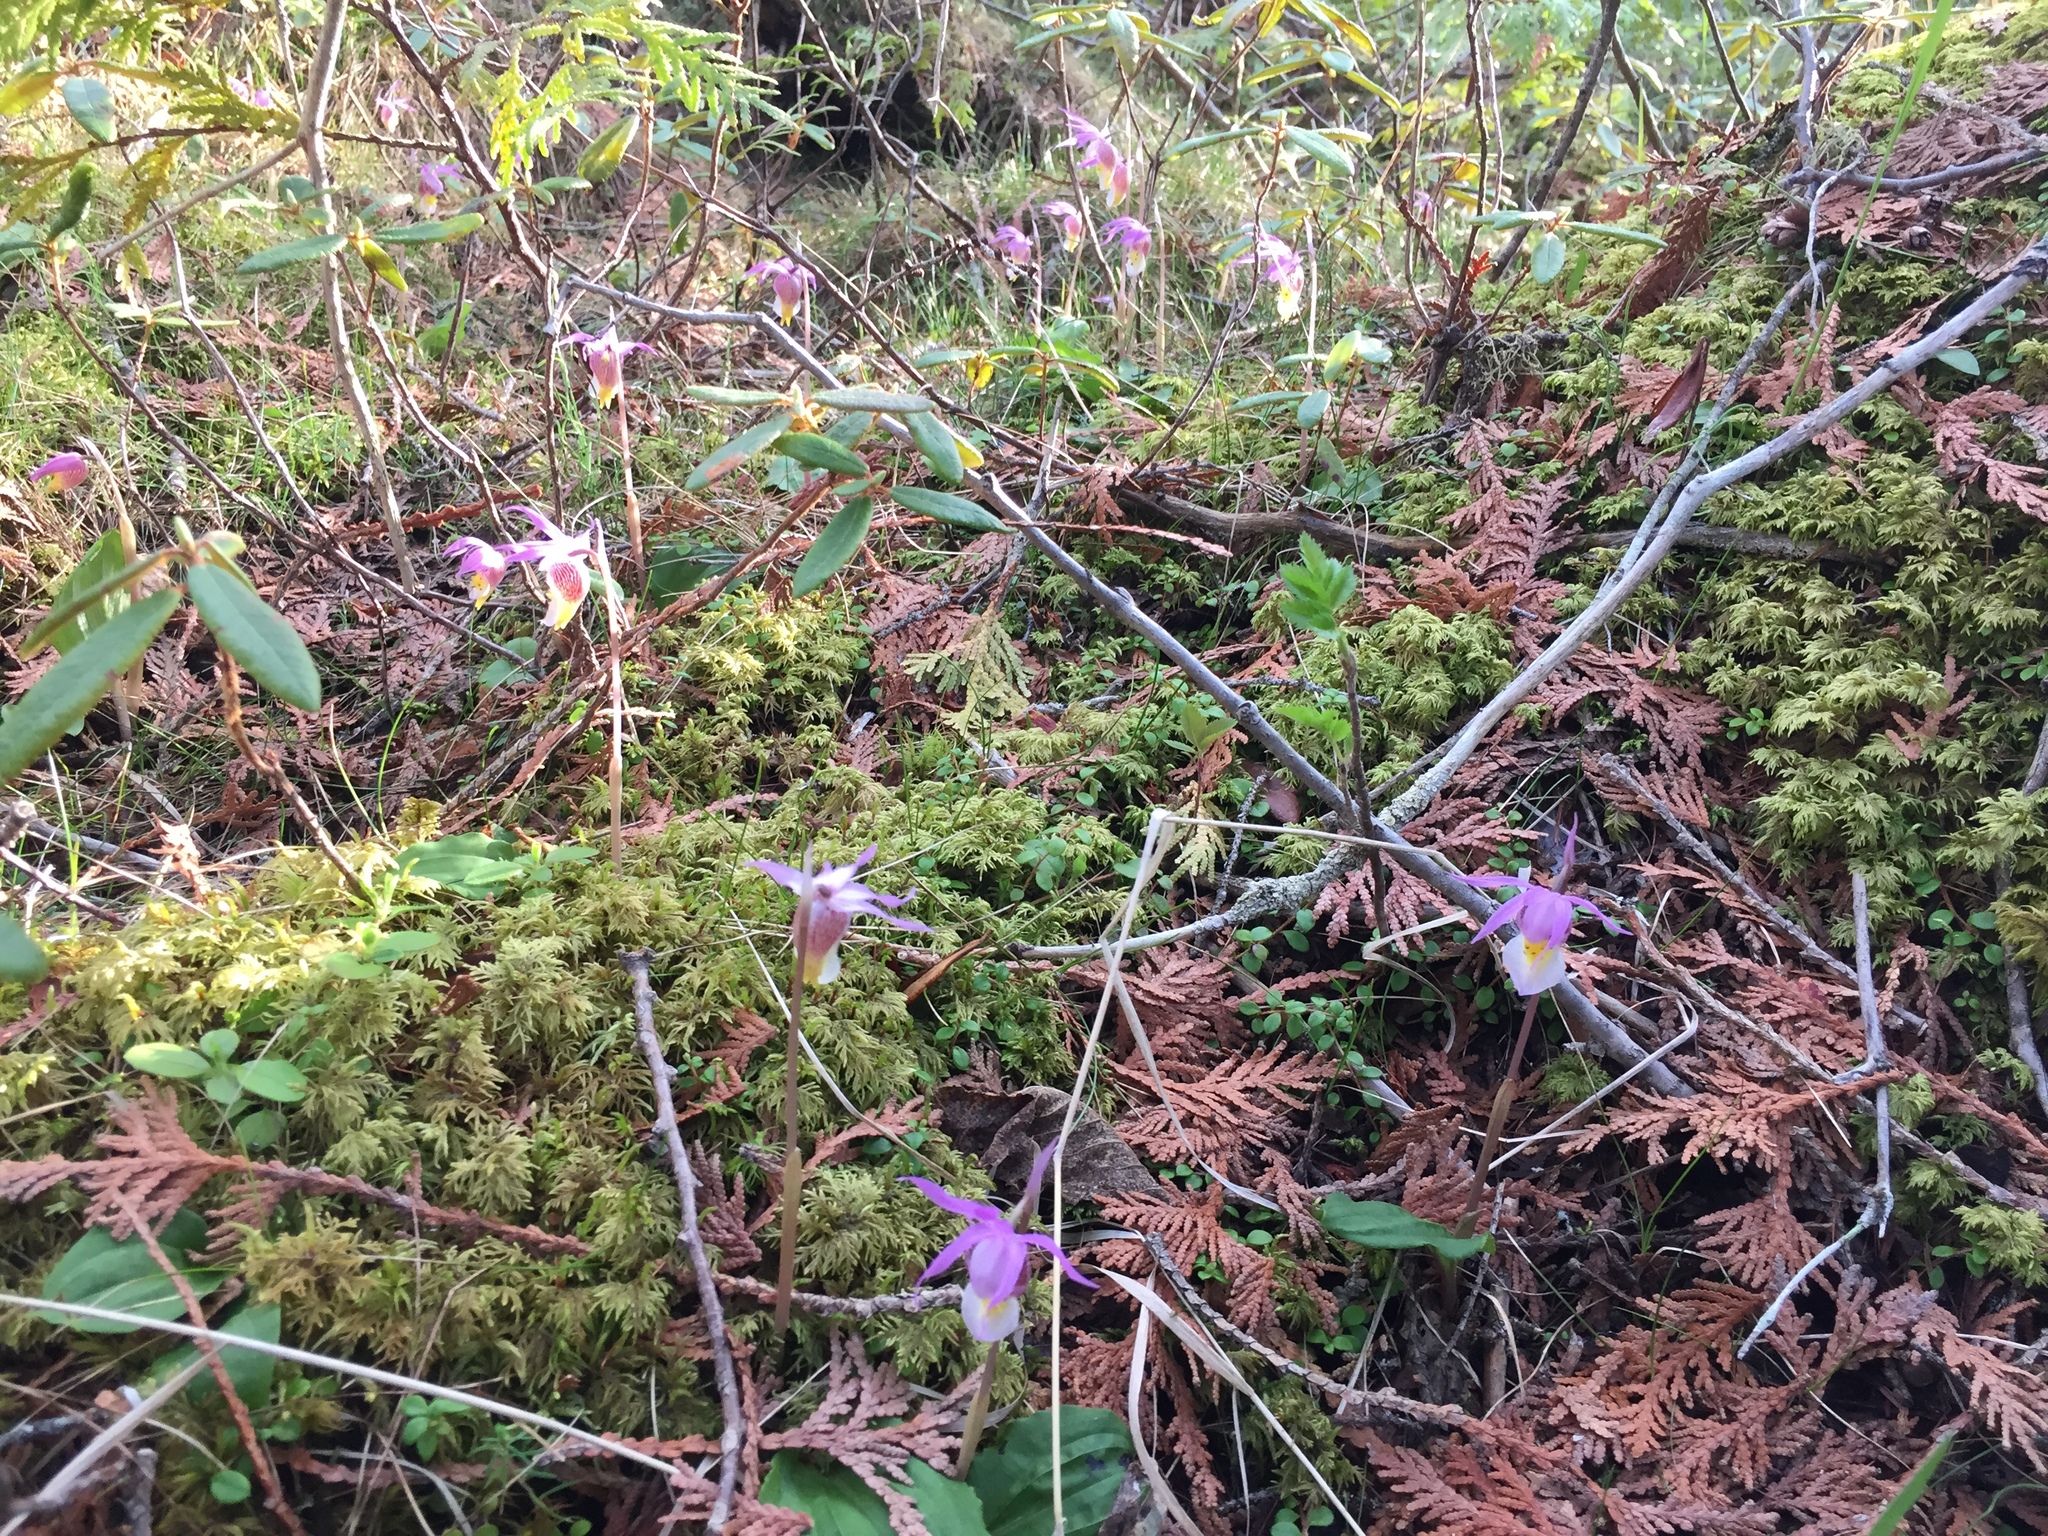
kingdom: Plantae
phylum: Tracheophyta
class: Liliopsida
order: Asparagales
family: Orchidaceae
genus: Calypso
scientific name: Calypso bulbosa
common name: Calypso
